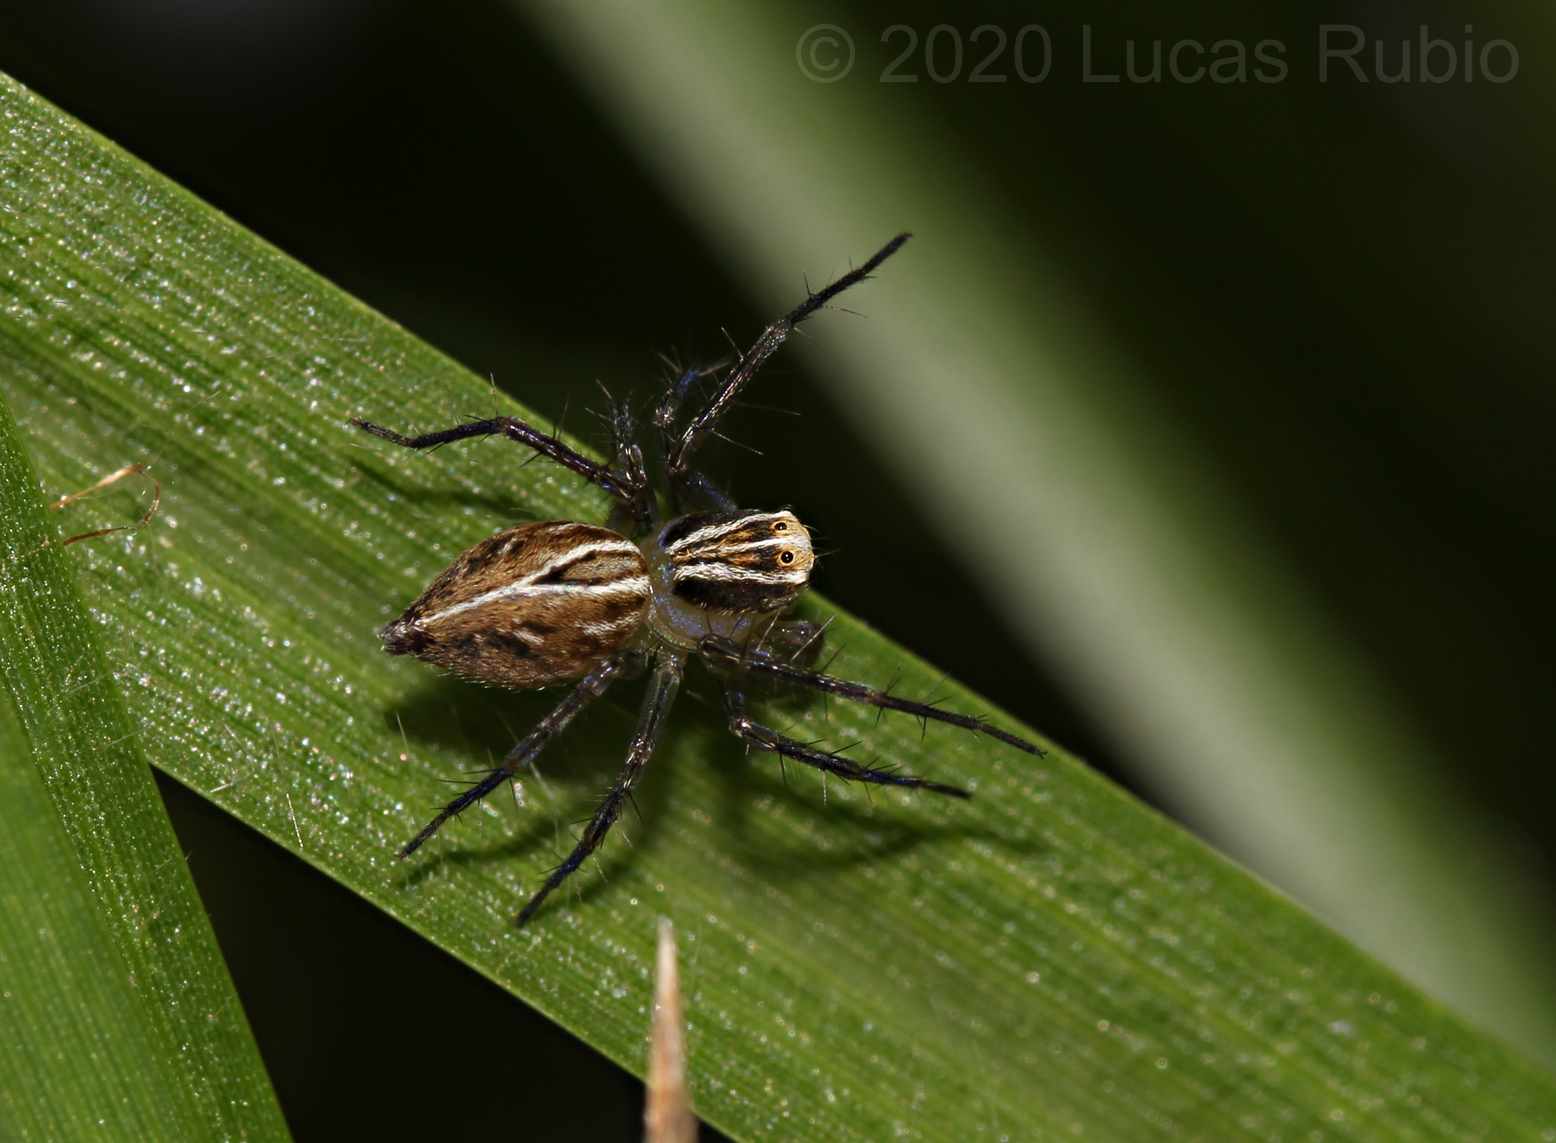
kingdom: Animalia
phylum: Arthropoda
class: Arachnida
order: Araneae
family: Oxyopidae
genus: Oxyopes
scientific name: Oxyopes salticus
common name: Lynx spiders
